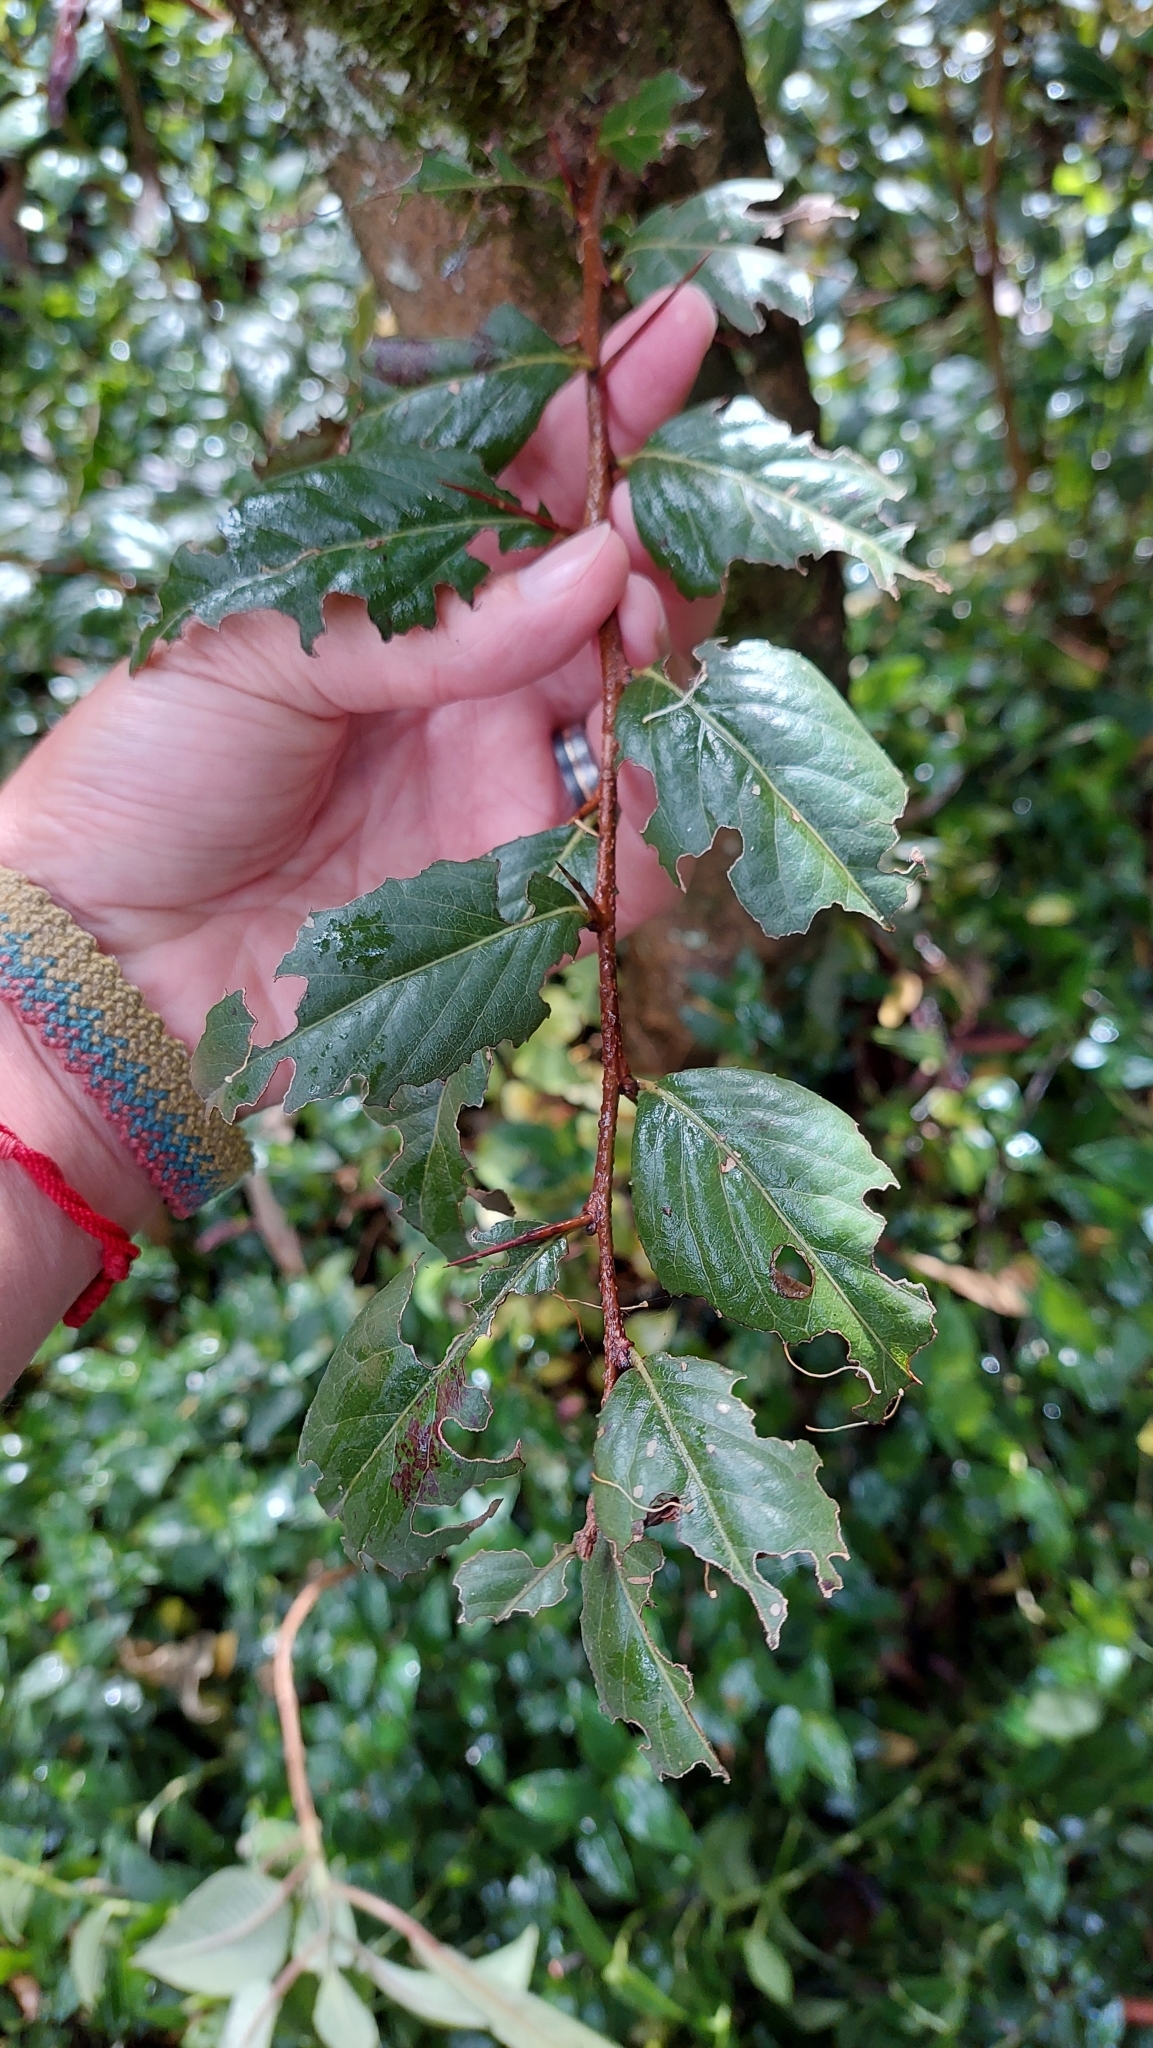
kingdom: Plantae
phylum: Tracheophyta
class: Magnoliopsida
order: Malpighiales
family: Salicaceae
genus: Xylosma
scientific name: Xylosma spiculifera
